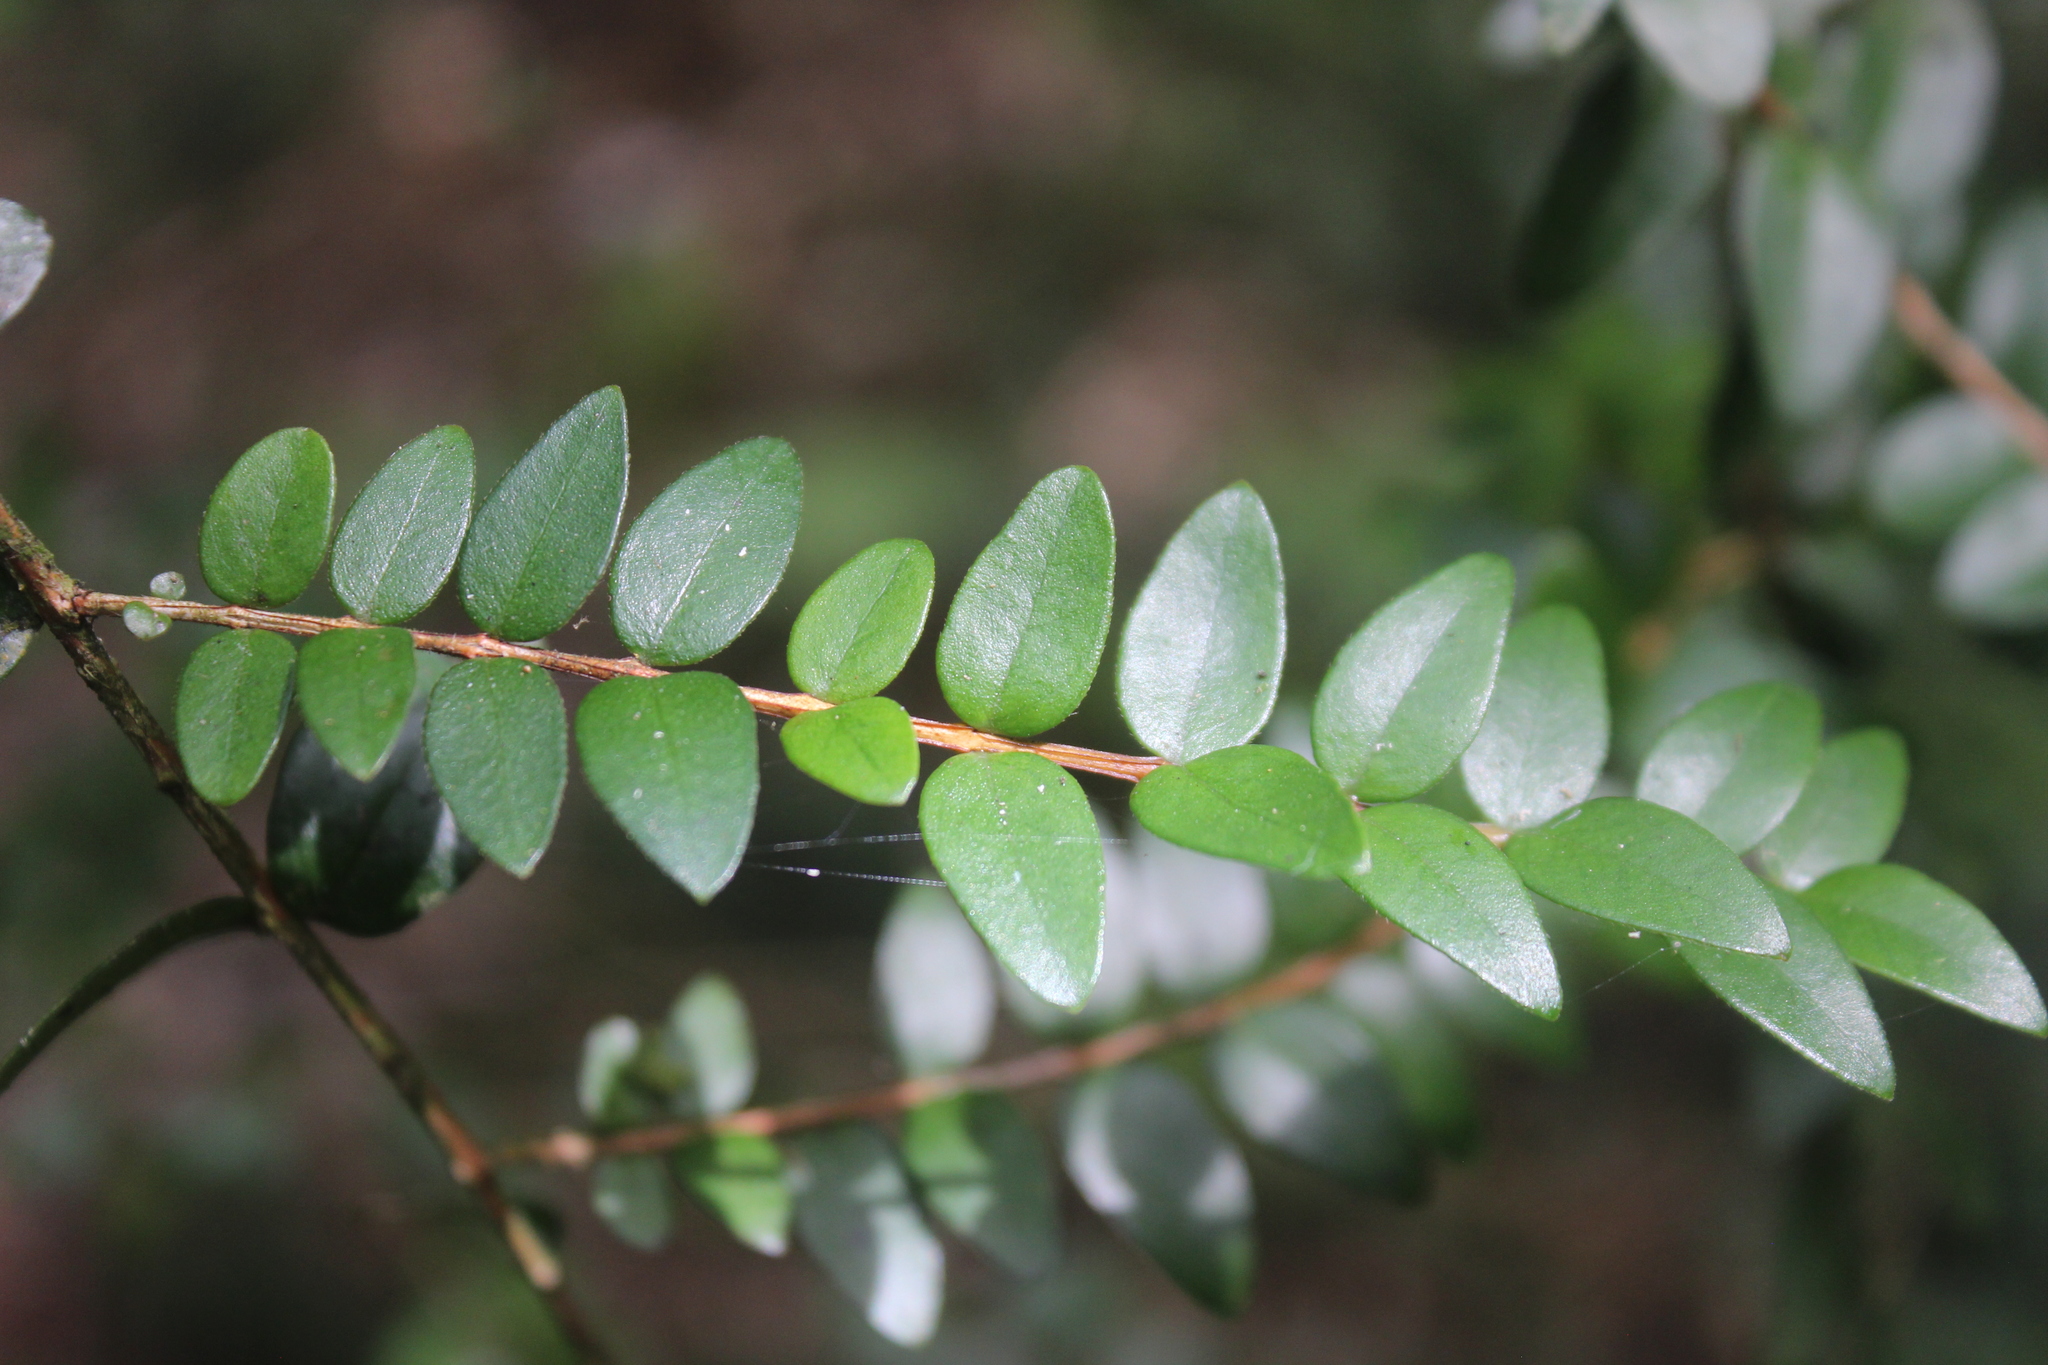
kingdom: Plantae
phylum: Tracheophyta
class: Magnoliopsida
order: Myrtales
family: Myrtaceae
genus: Metrosideros
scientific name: Metrosideros diffusa
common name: Small ratavine
